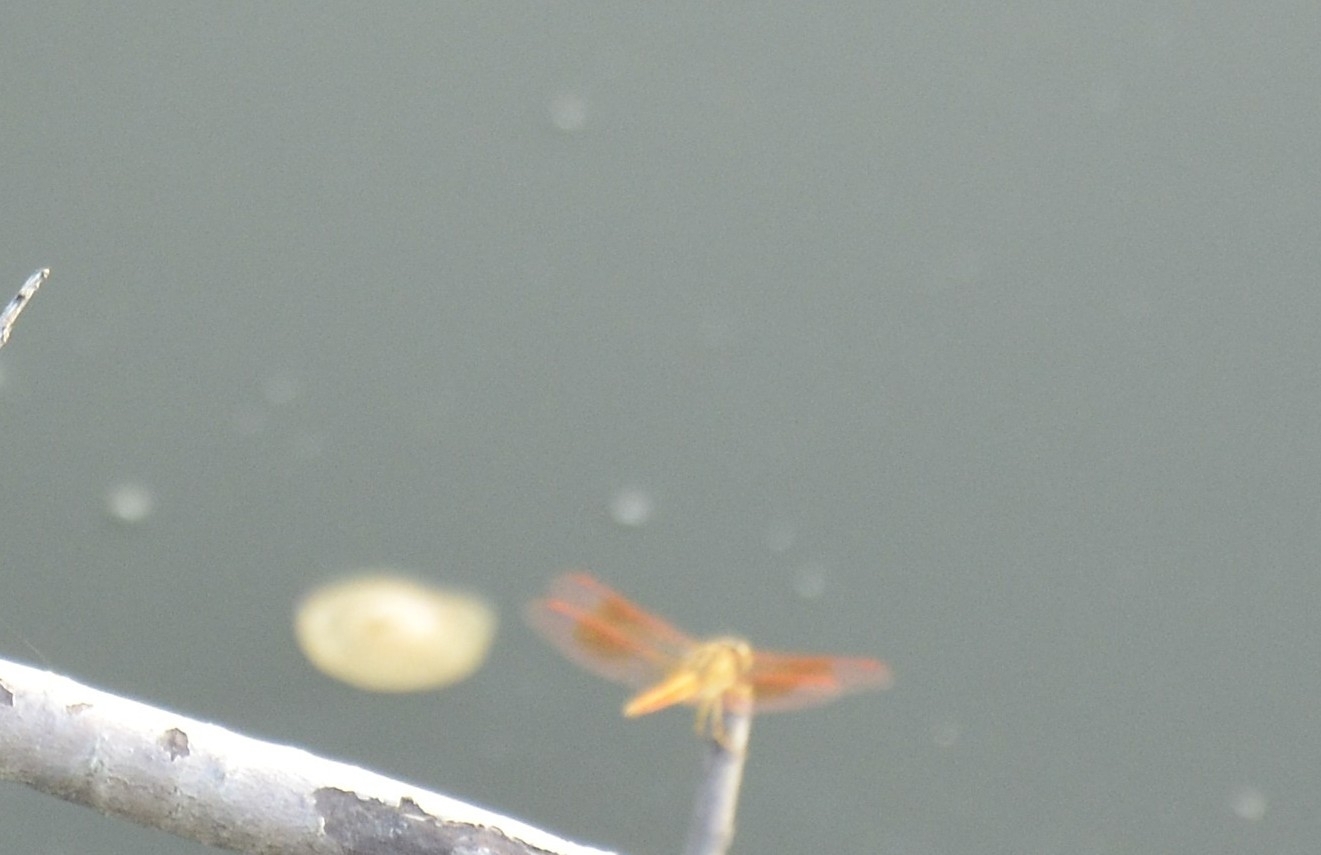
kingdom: Animalia
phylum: Arthropoda
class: Insecta
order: Odonata
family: Libellulidae
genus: Brachythemis
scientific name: Brachythemis contaminata
